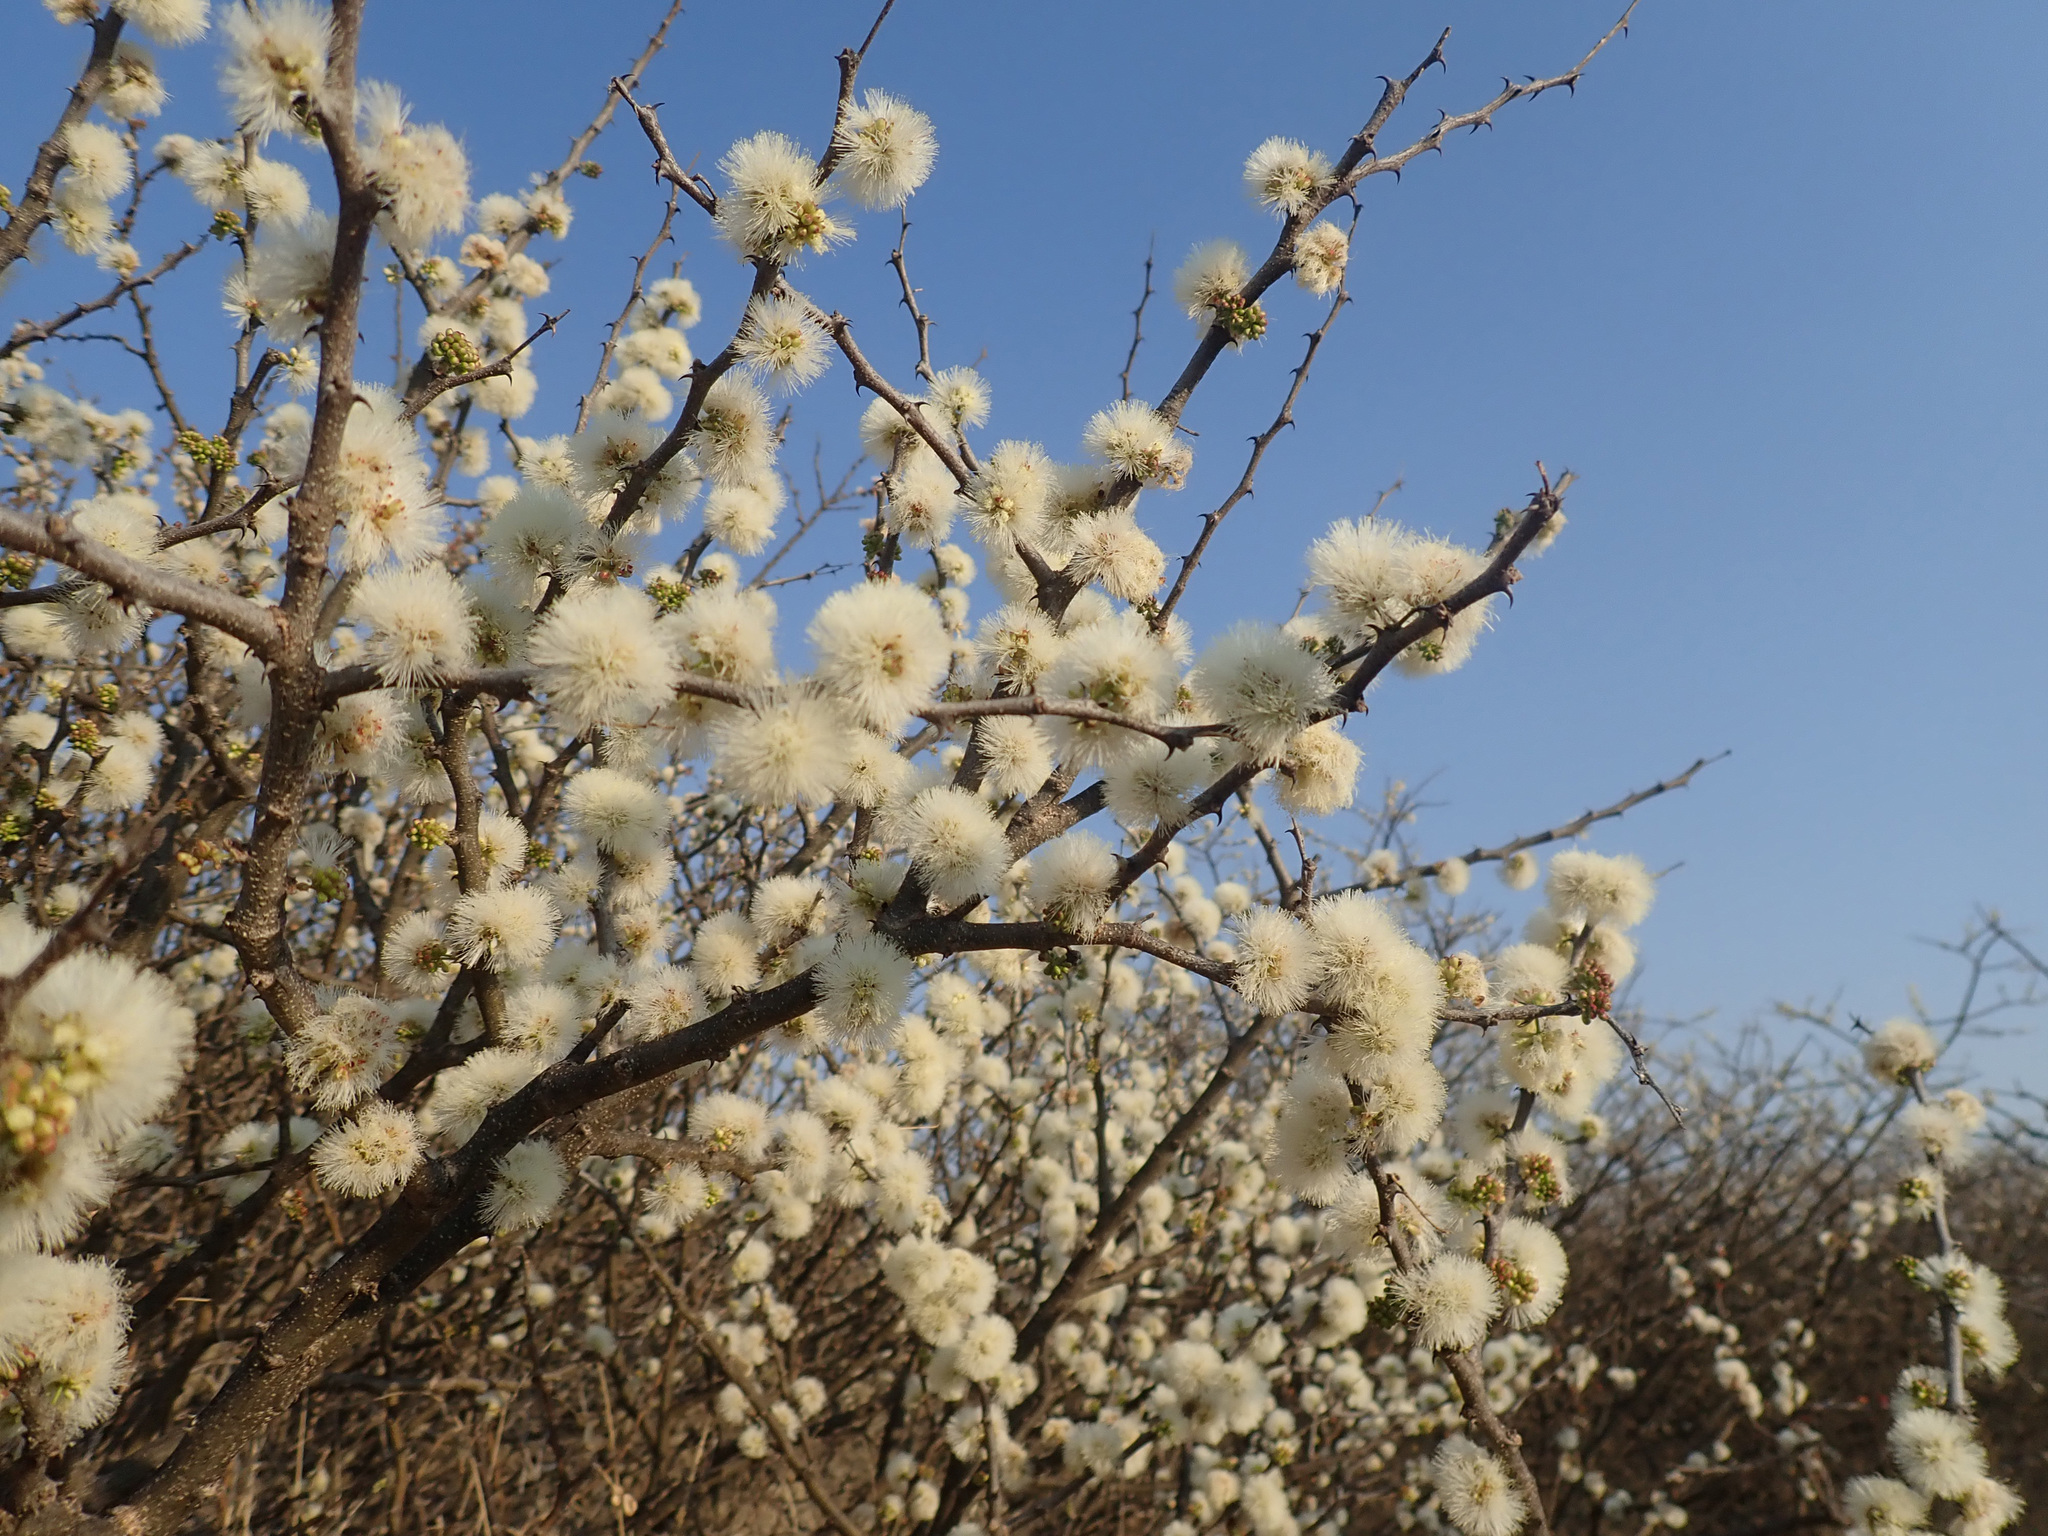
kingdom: Plantae
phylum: Tracheophyta
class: Magnoliopsida
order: Fabales
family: Fabaceae
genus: Senegalia
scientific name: Senegalia mellifera
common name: Hookthorn
